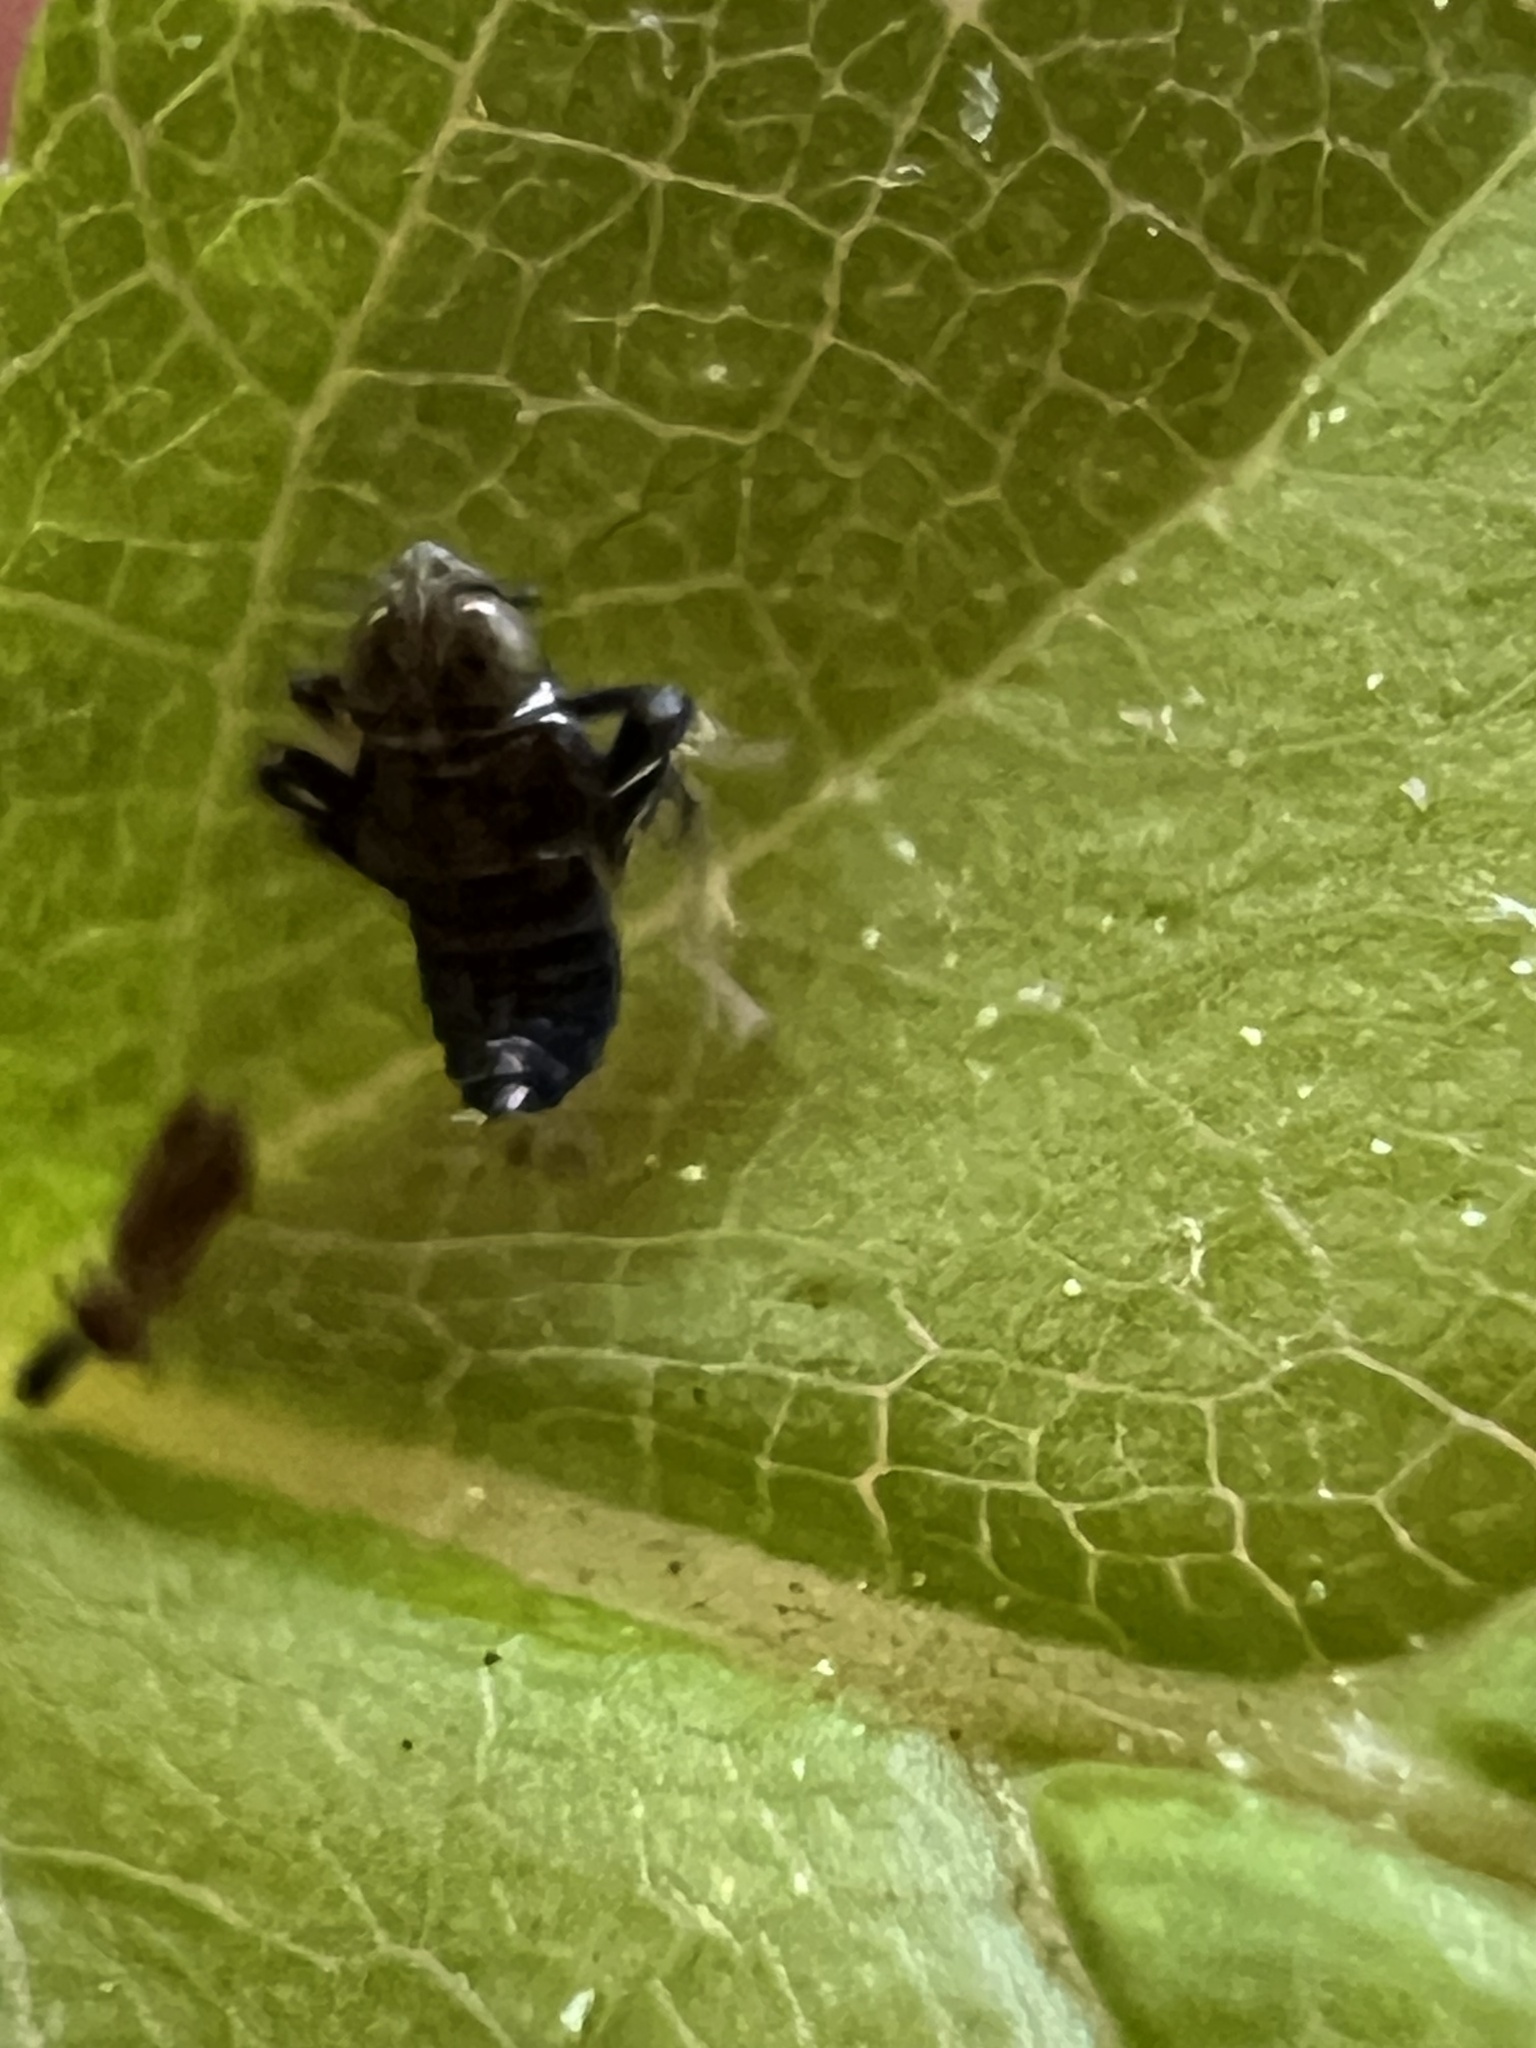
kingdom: Animalia
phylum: Arthropoda
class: Insecta
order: Hemiptera
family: Cicadellidae
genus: Jikradia
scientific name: Jikradia olitoria
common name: Coppery leafhopper
